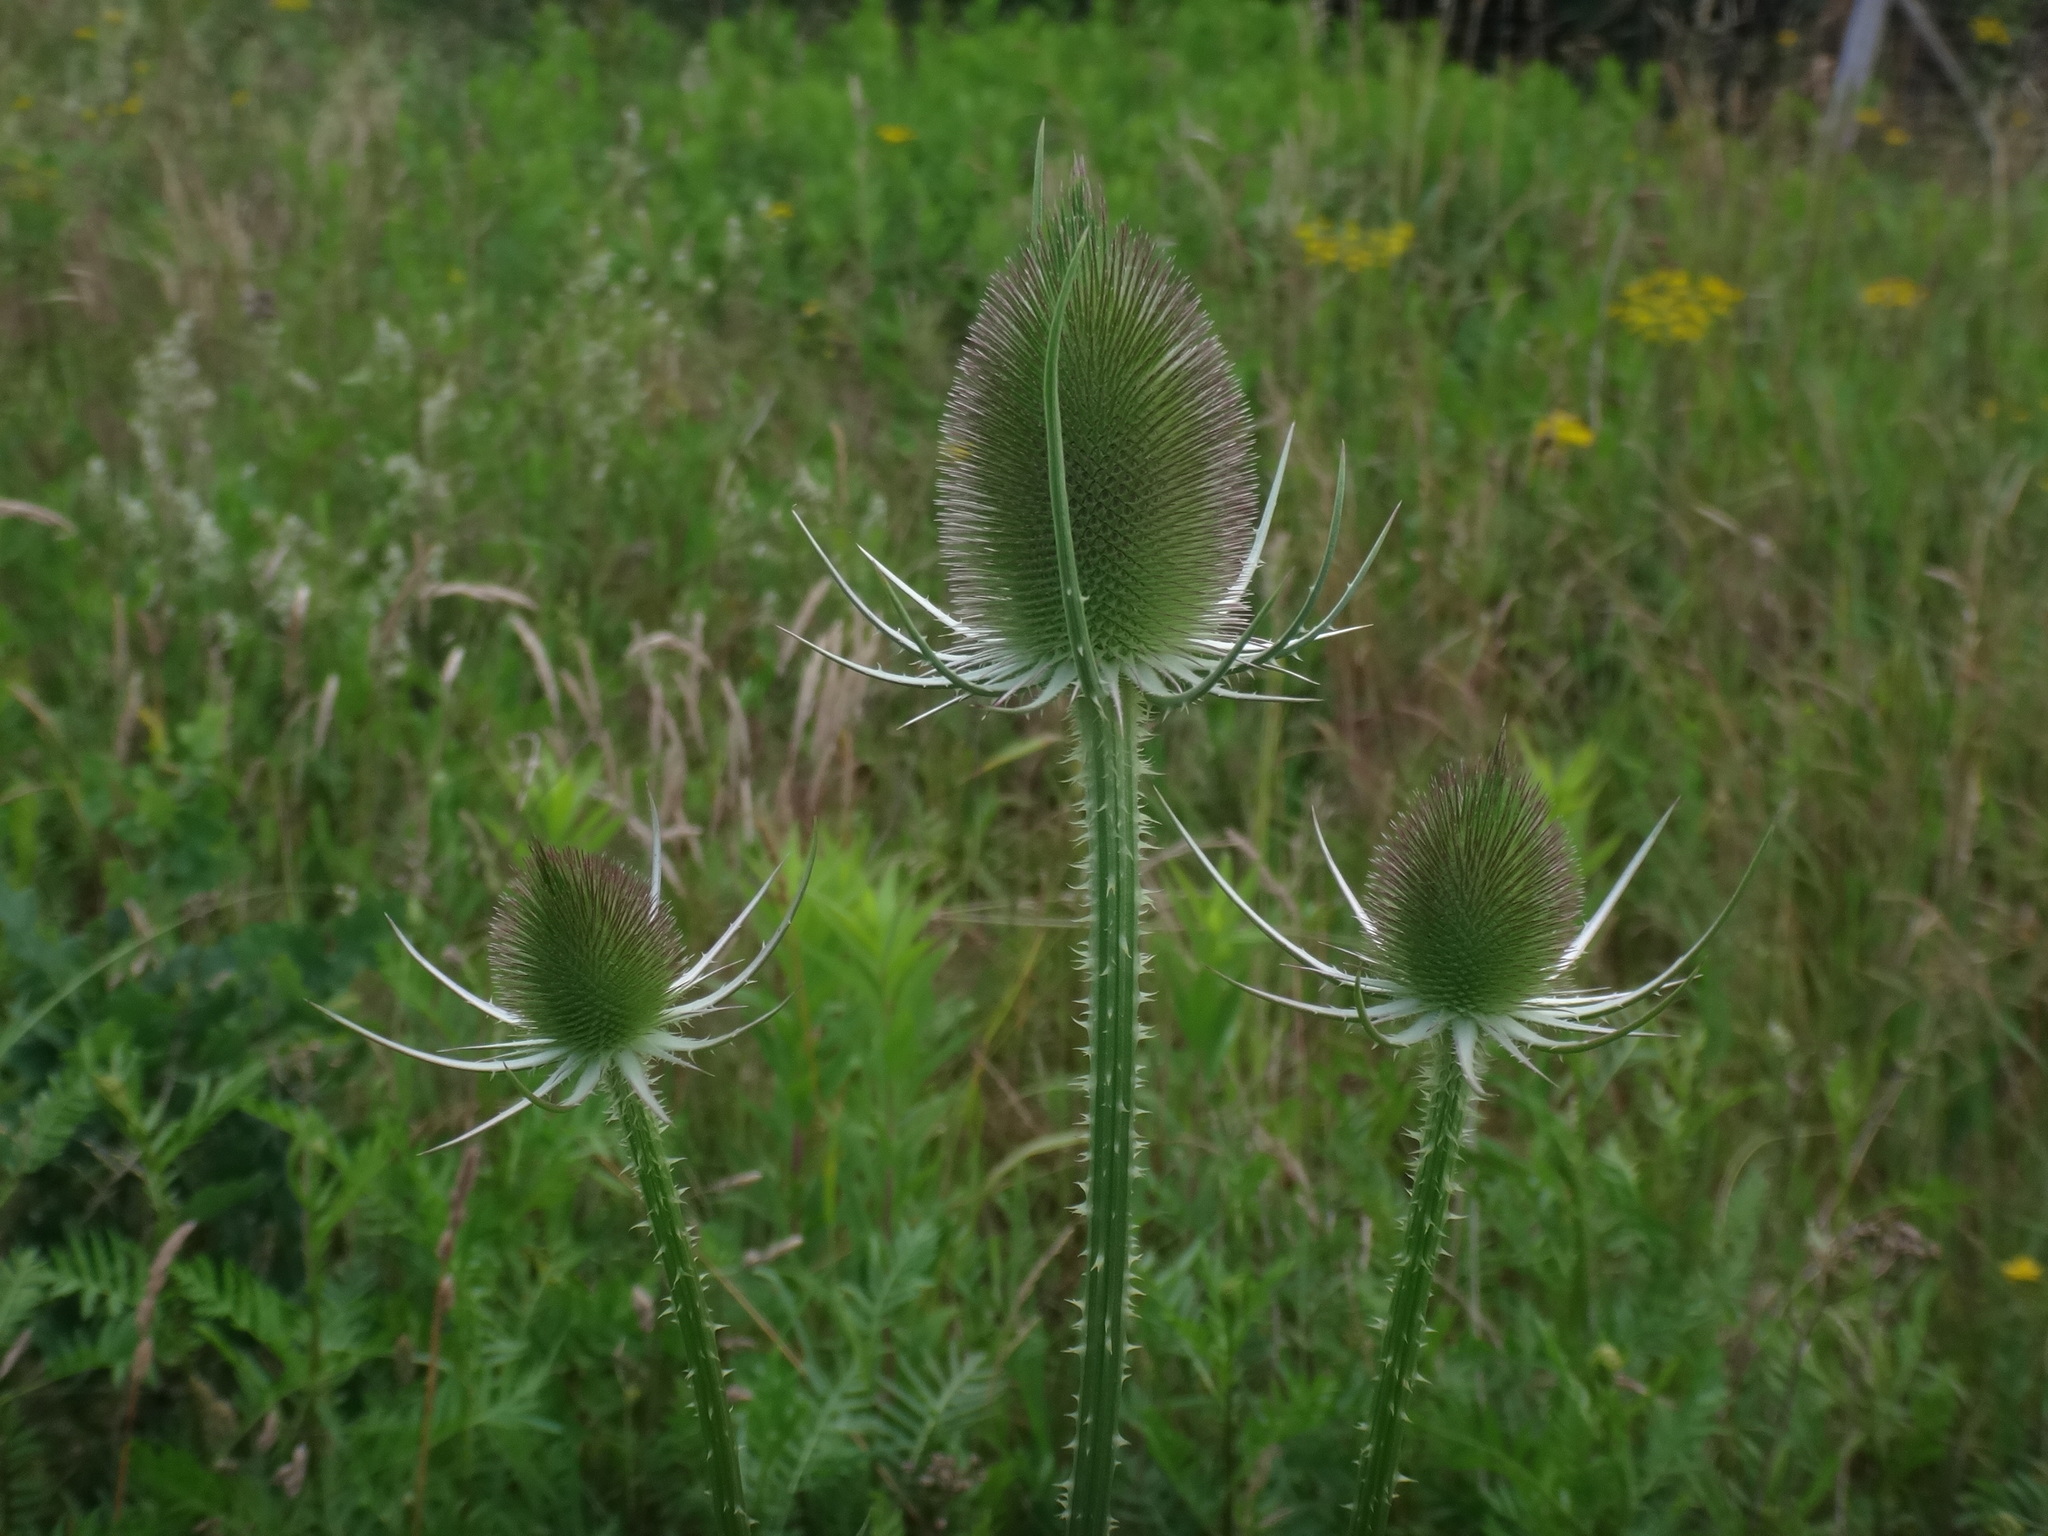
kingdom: Plantae
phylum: Tracheophyta
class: Magnoliopsida
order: Dipsacales
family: Caprifoliaceae
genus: Dipsacus
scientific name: Dipsacus fullonum
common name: Teasel
